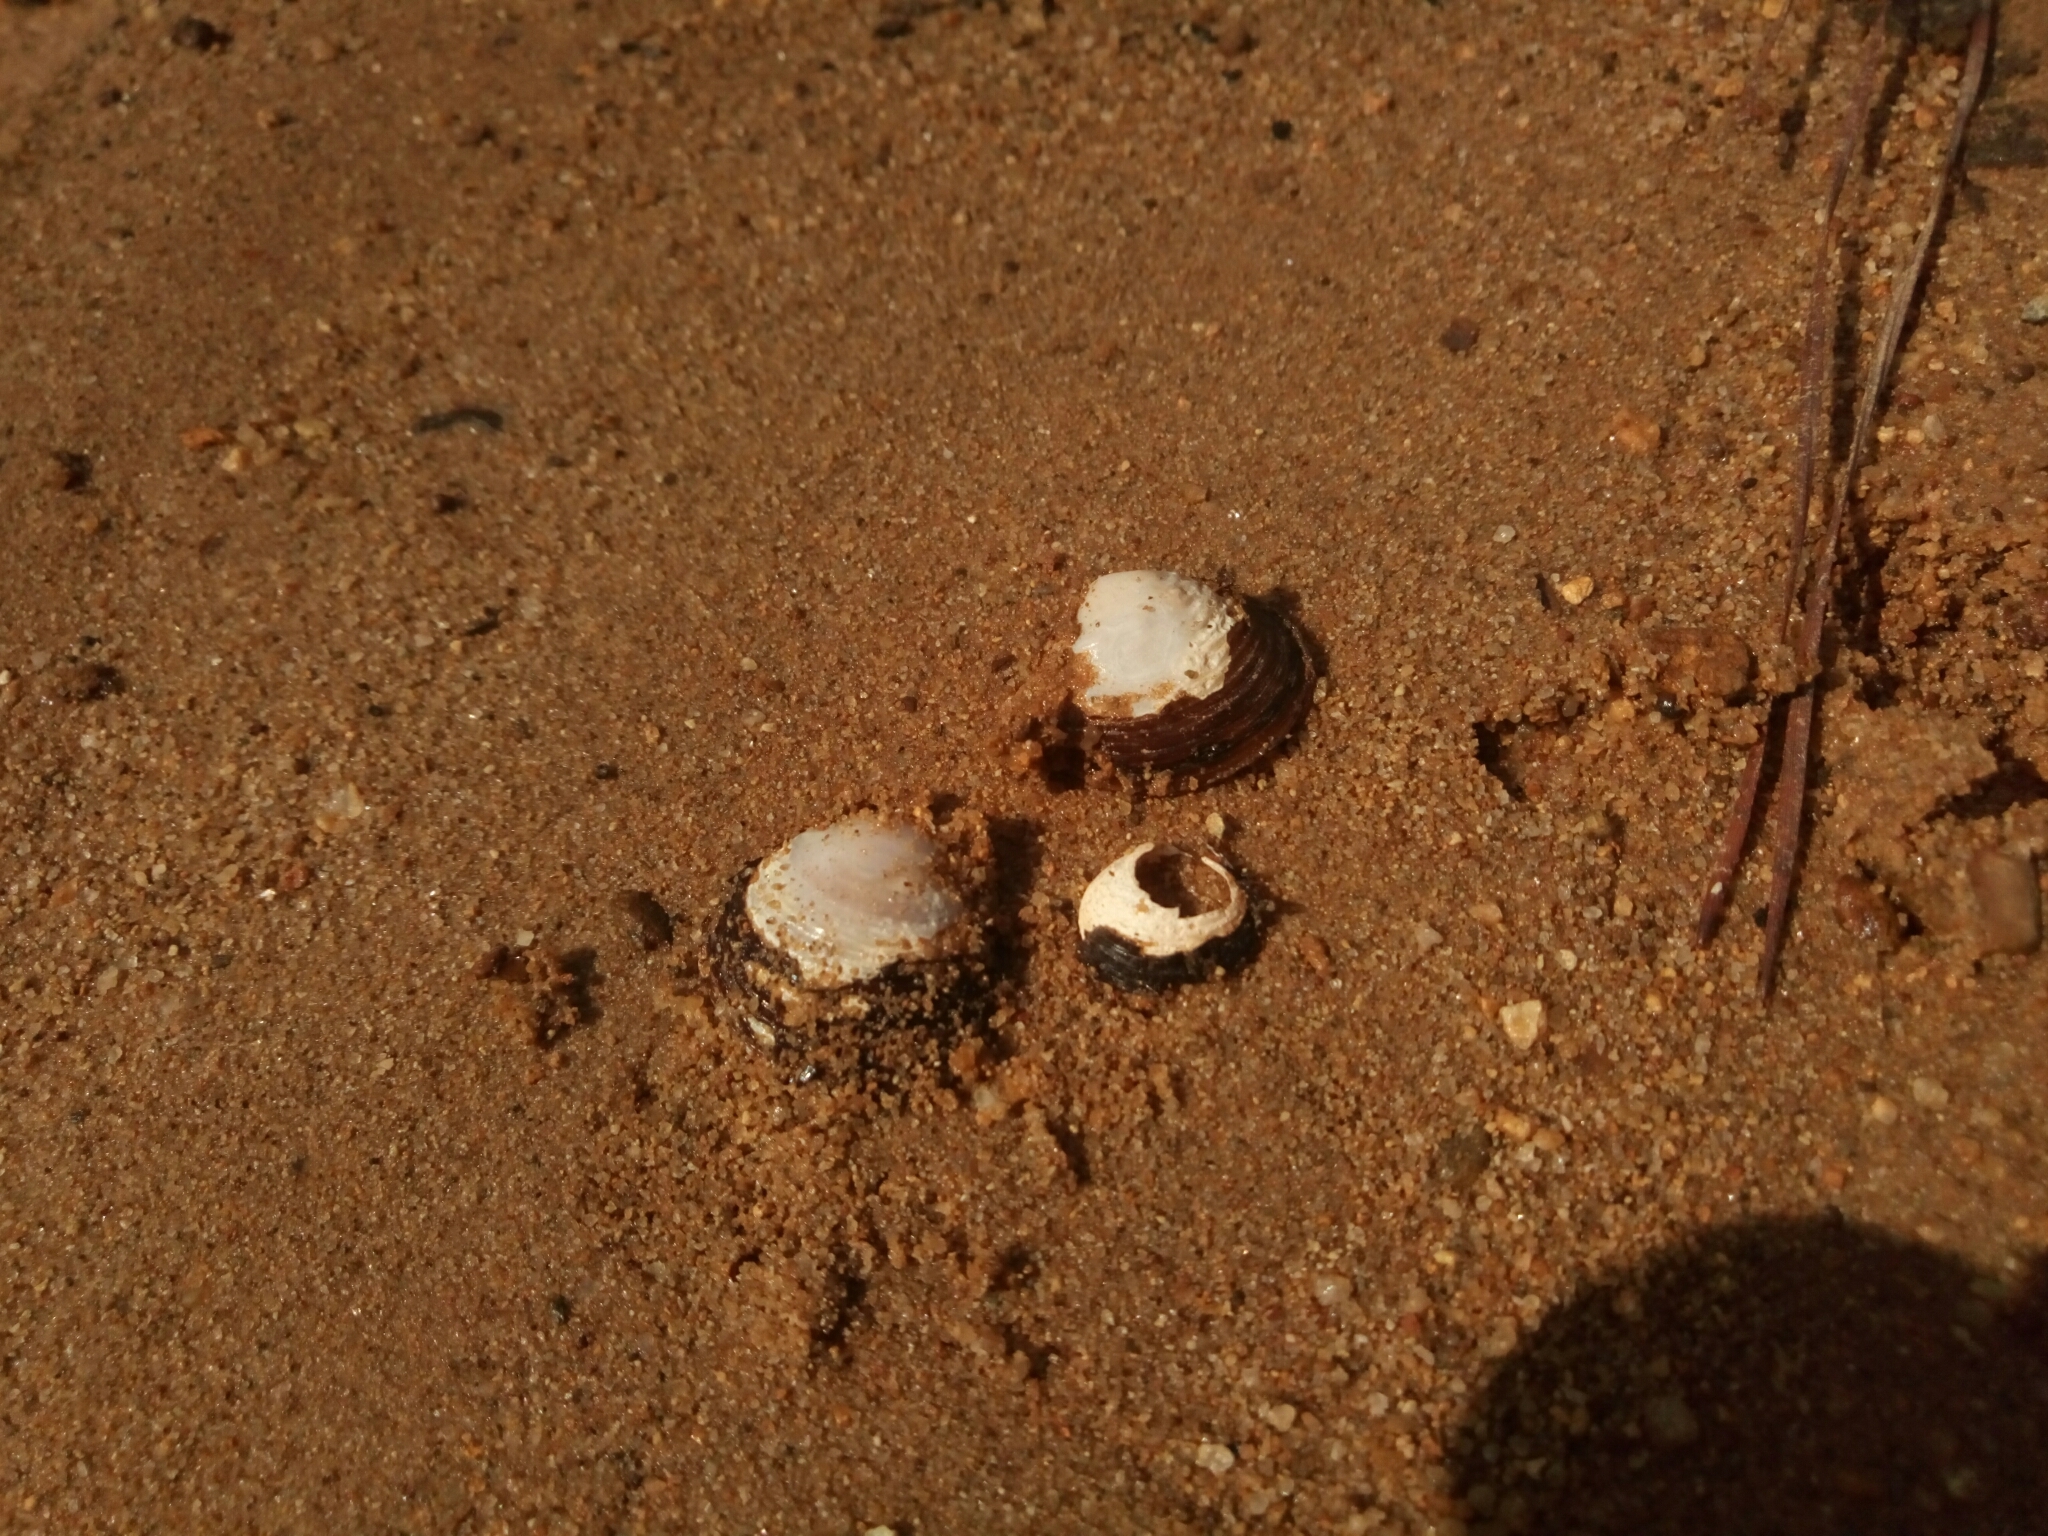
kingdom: Animalia
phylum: Mollusca
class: Bivalvia
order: Venerida
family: Cyrenidae
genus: Corbicula
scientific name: Corbicula fluminea
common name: Asian clam
